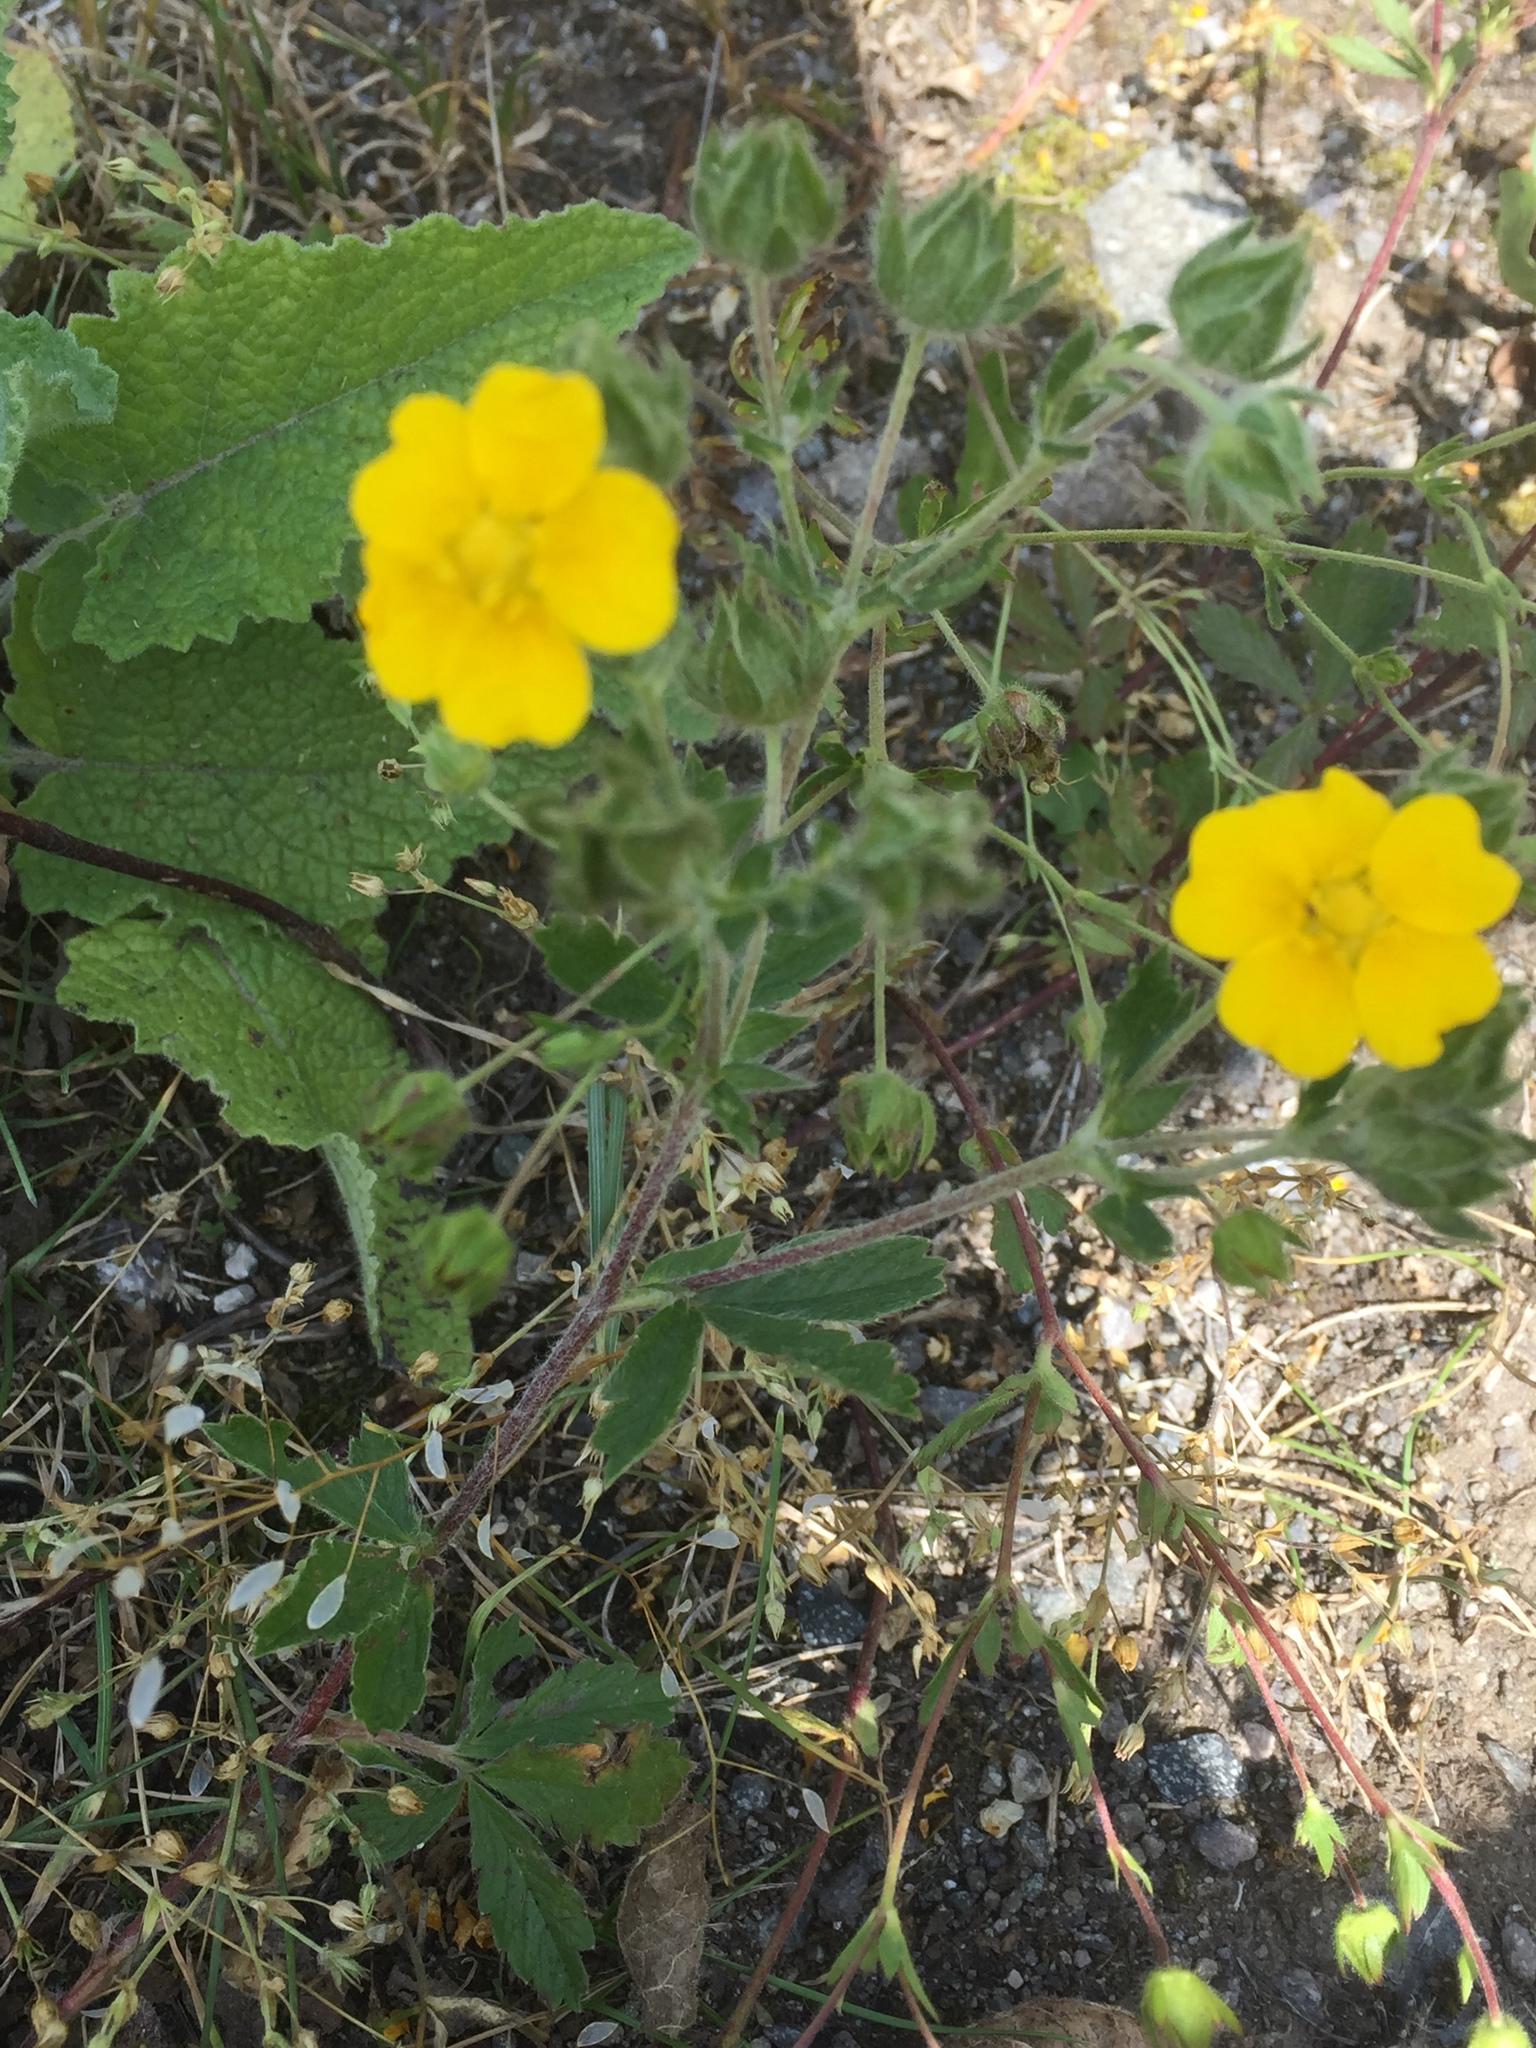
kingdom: Plantae
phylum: Tracheophyta
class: Magnoliopsida
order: Rosales
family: Rosaceae
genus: Potentilla
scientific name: Potentilla argentea
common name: Hoary cinquefoil
